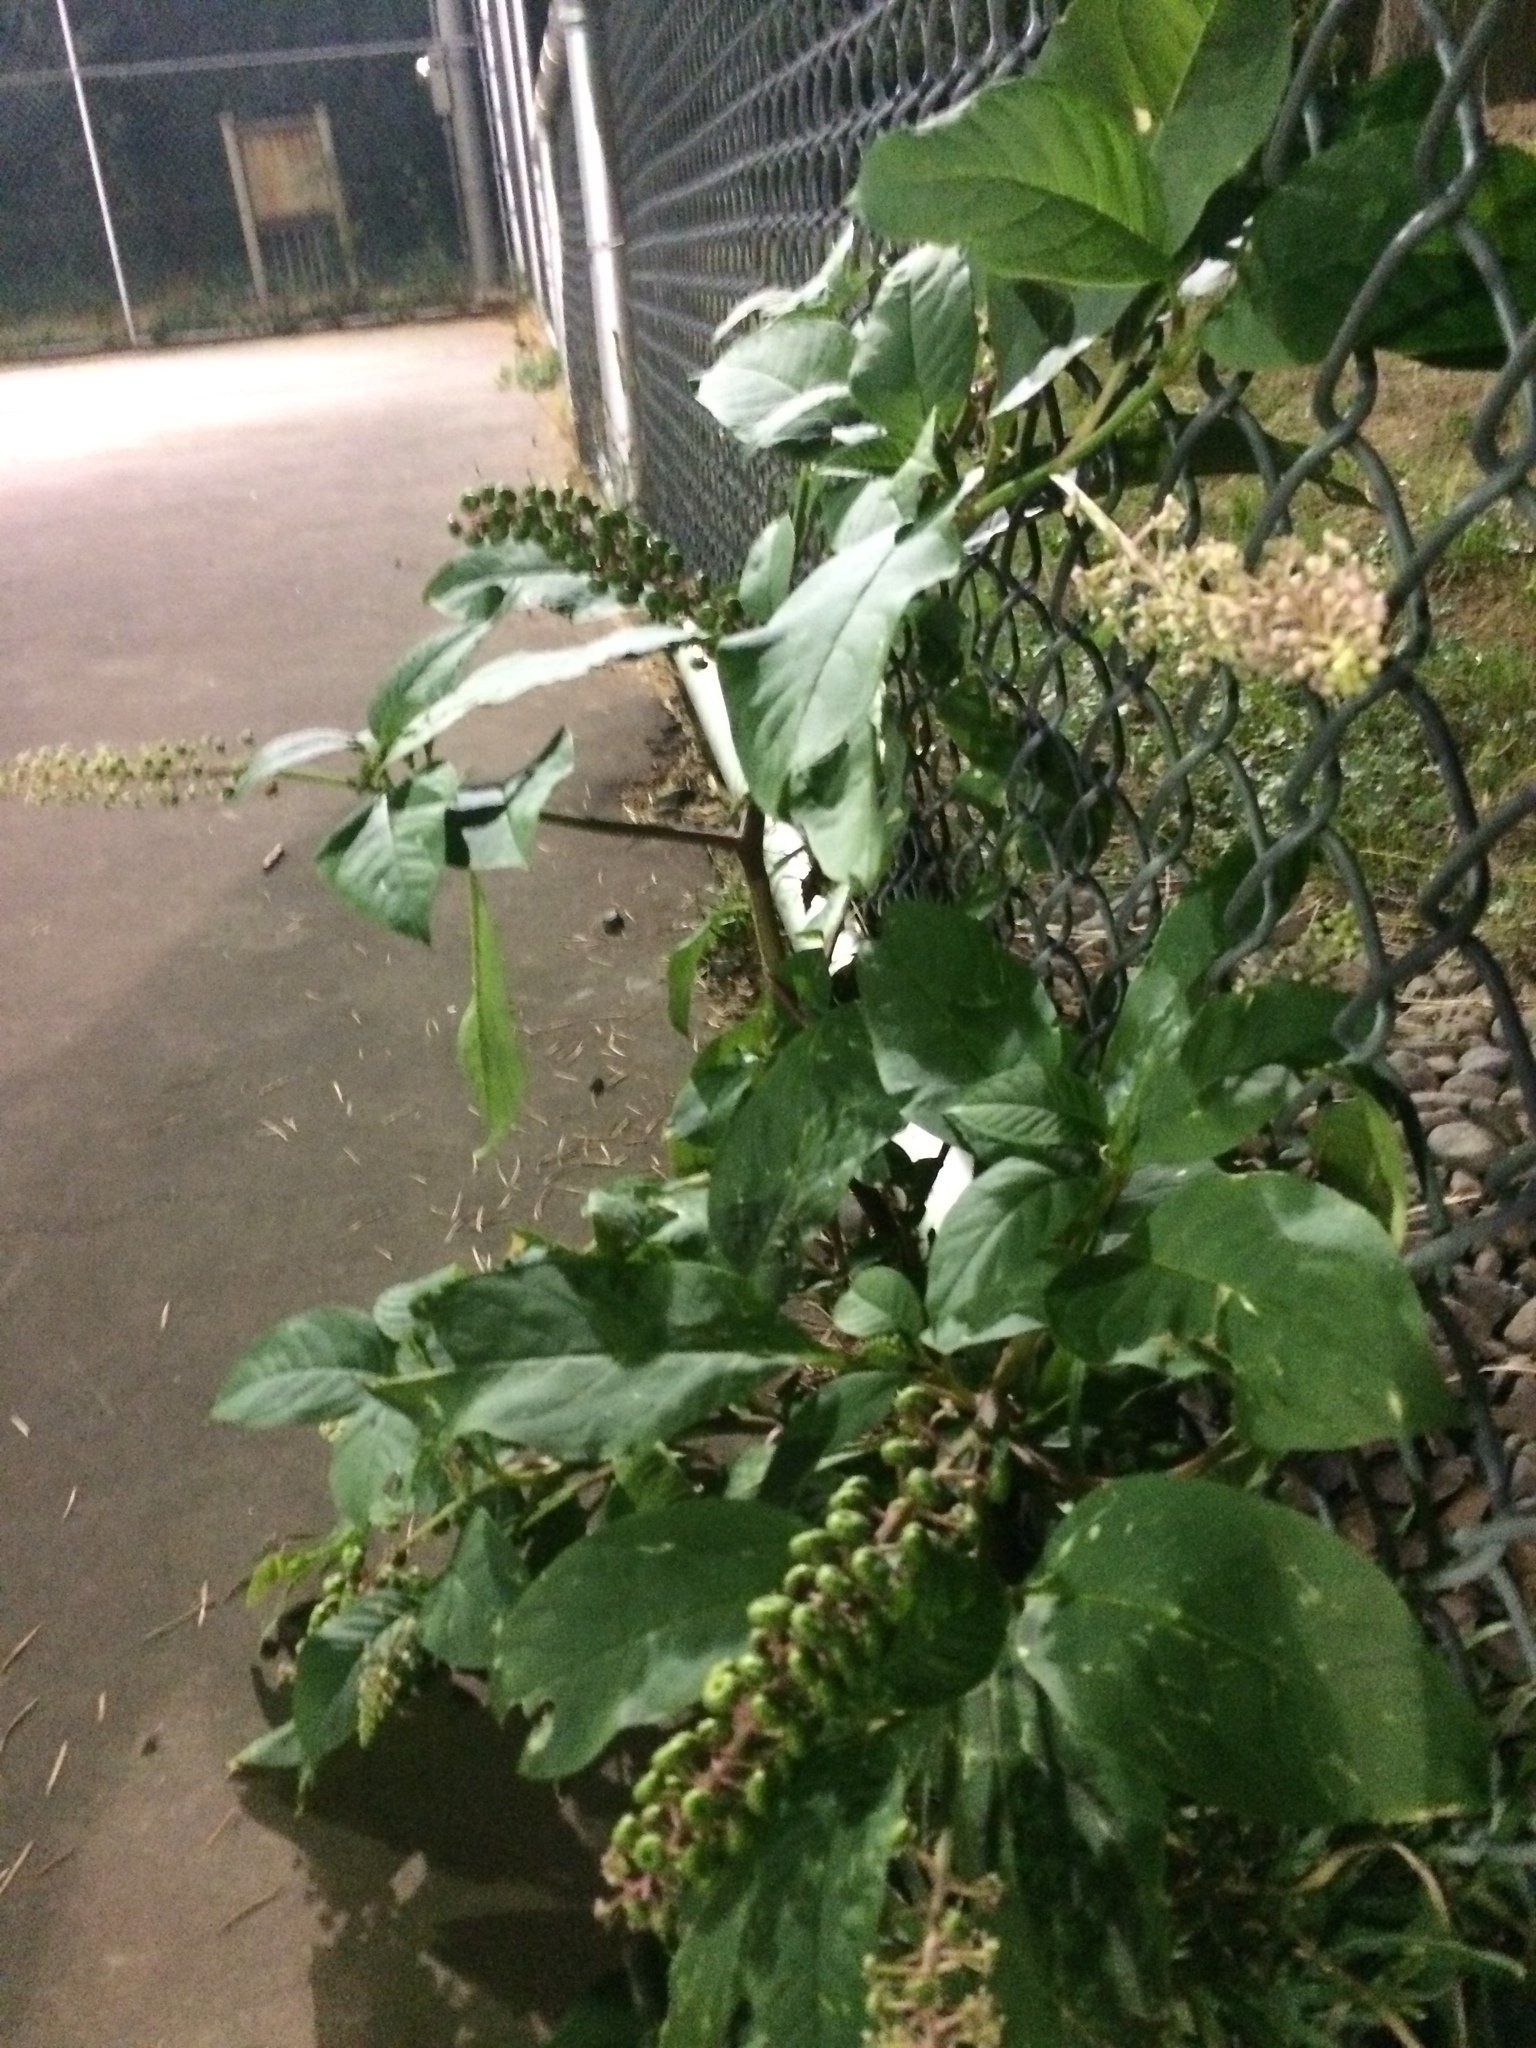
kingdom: Plantae
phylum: Tracheophyta
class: Magnoliopsida
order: Caryophyllales
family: Phytolaccaceae
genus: Phytolacca
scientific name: Phytolacca americana
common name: American pokeweed
